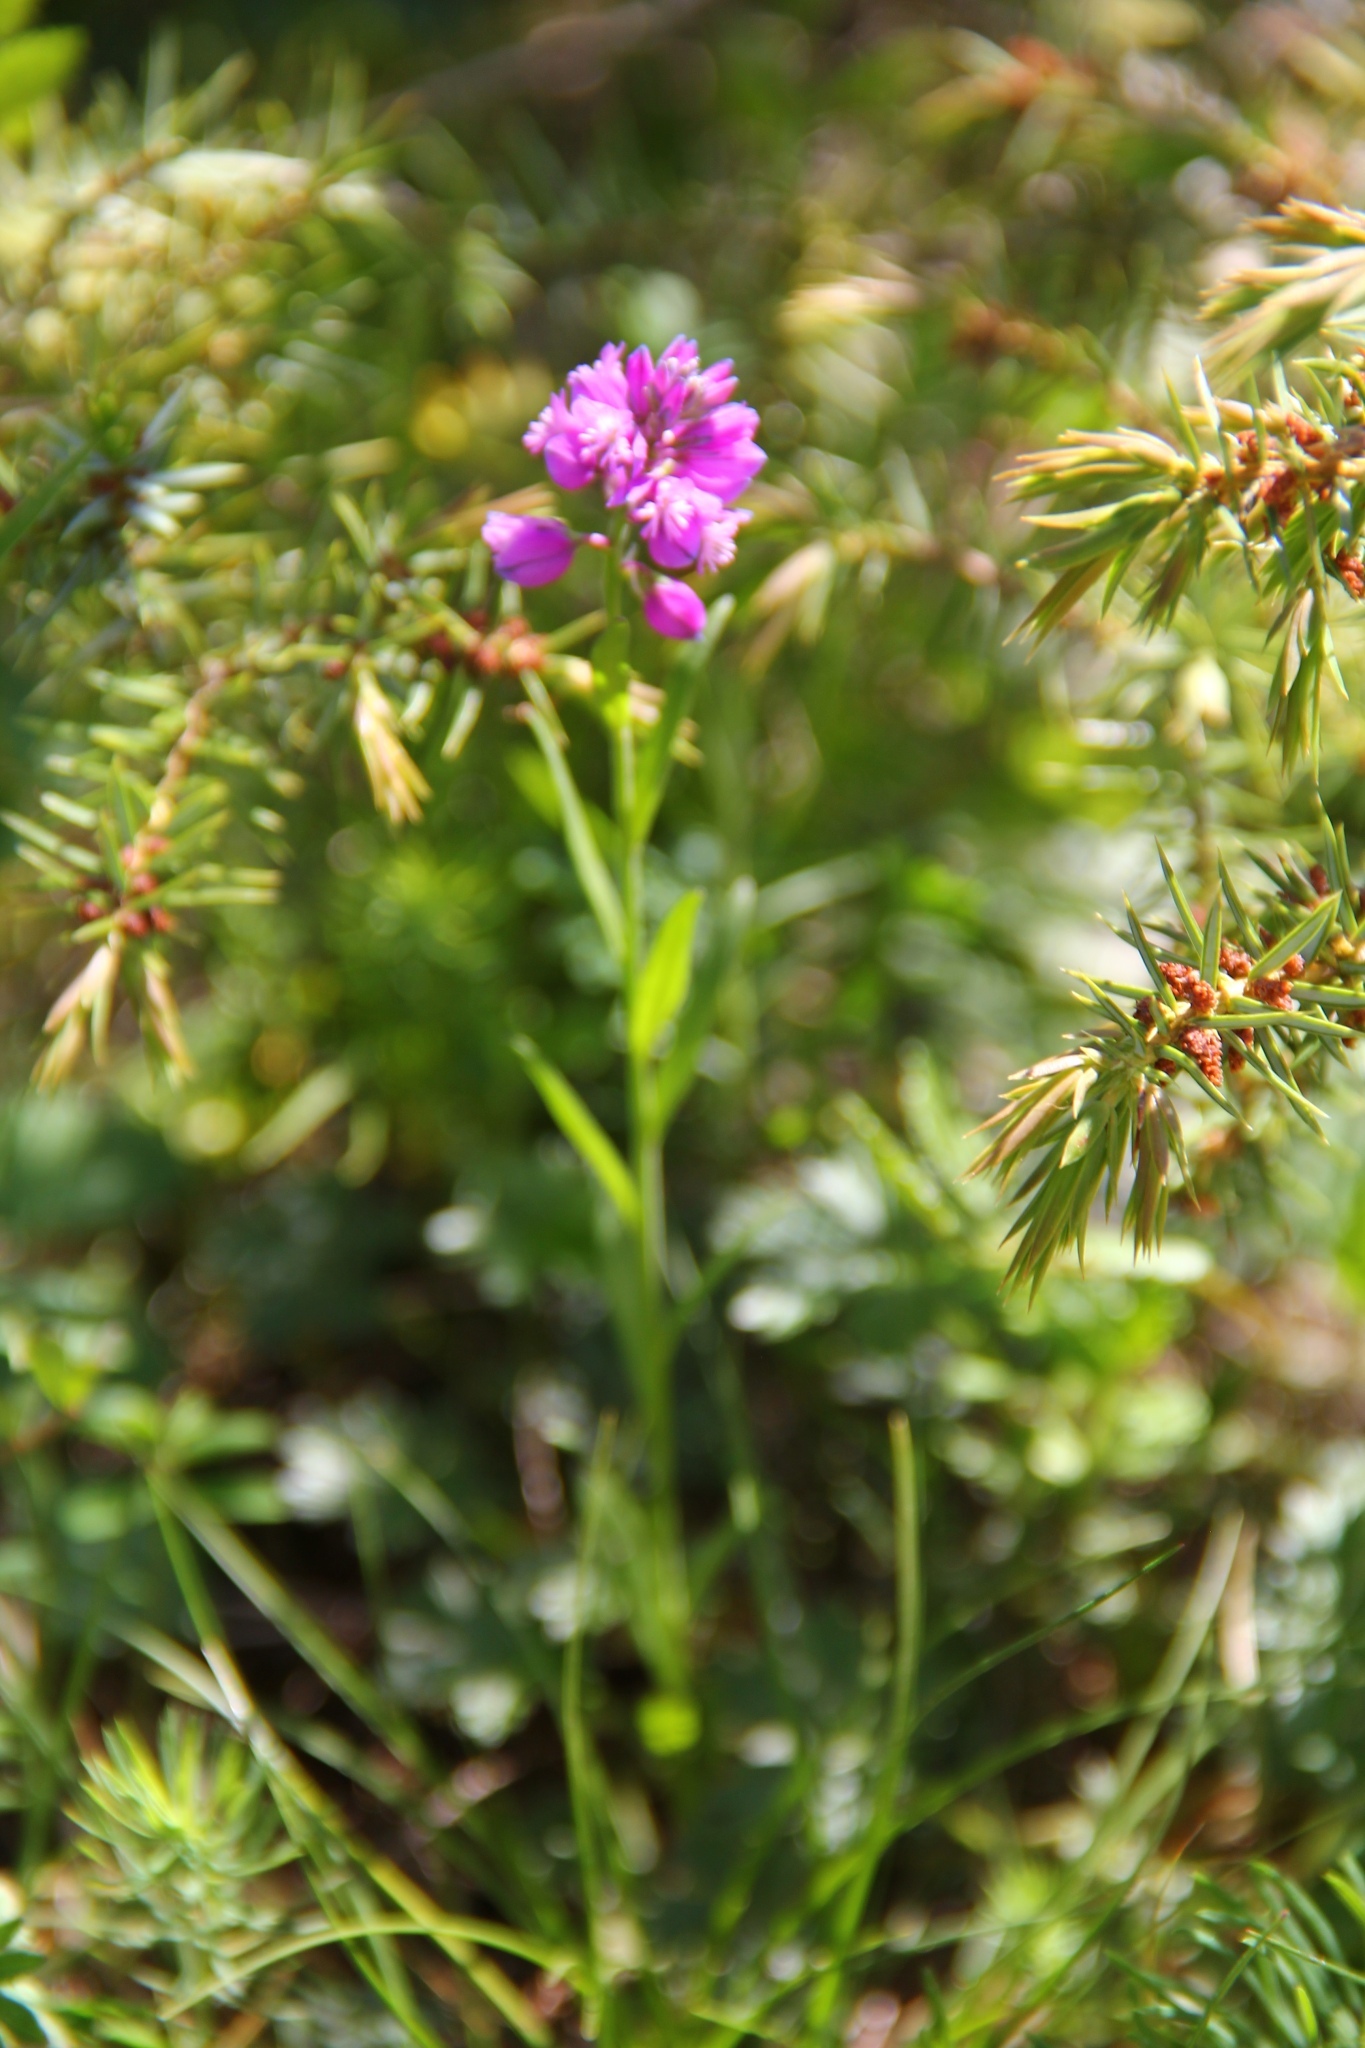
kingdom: Plantae
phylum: Tracheophyta
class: Magnoliopsida
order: Fabales
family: Polygalaceae
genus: Polygala
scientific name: Polygala comosa
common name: Tufted milkwort
